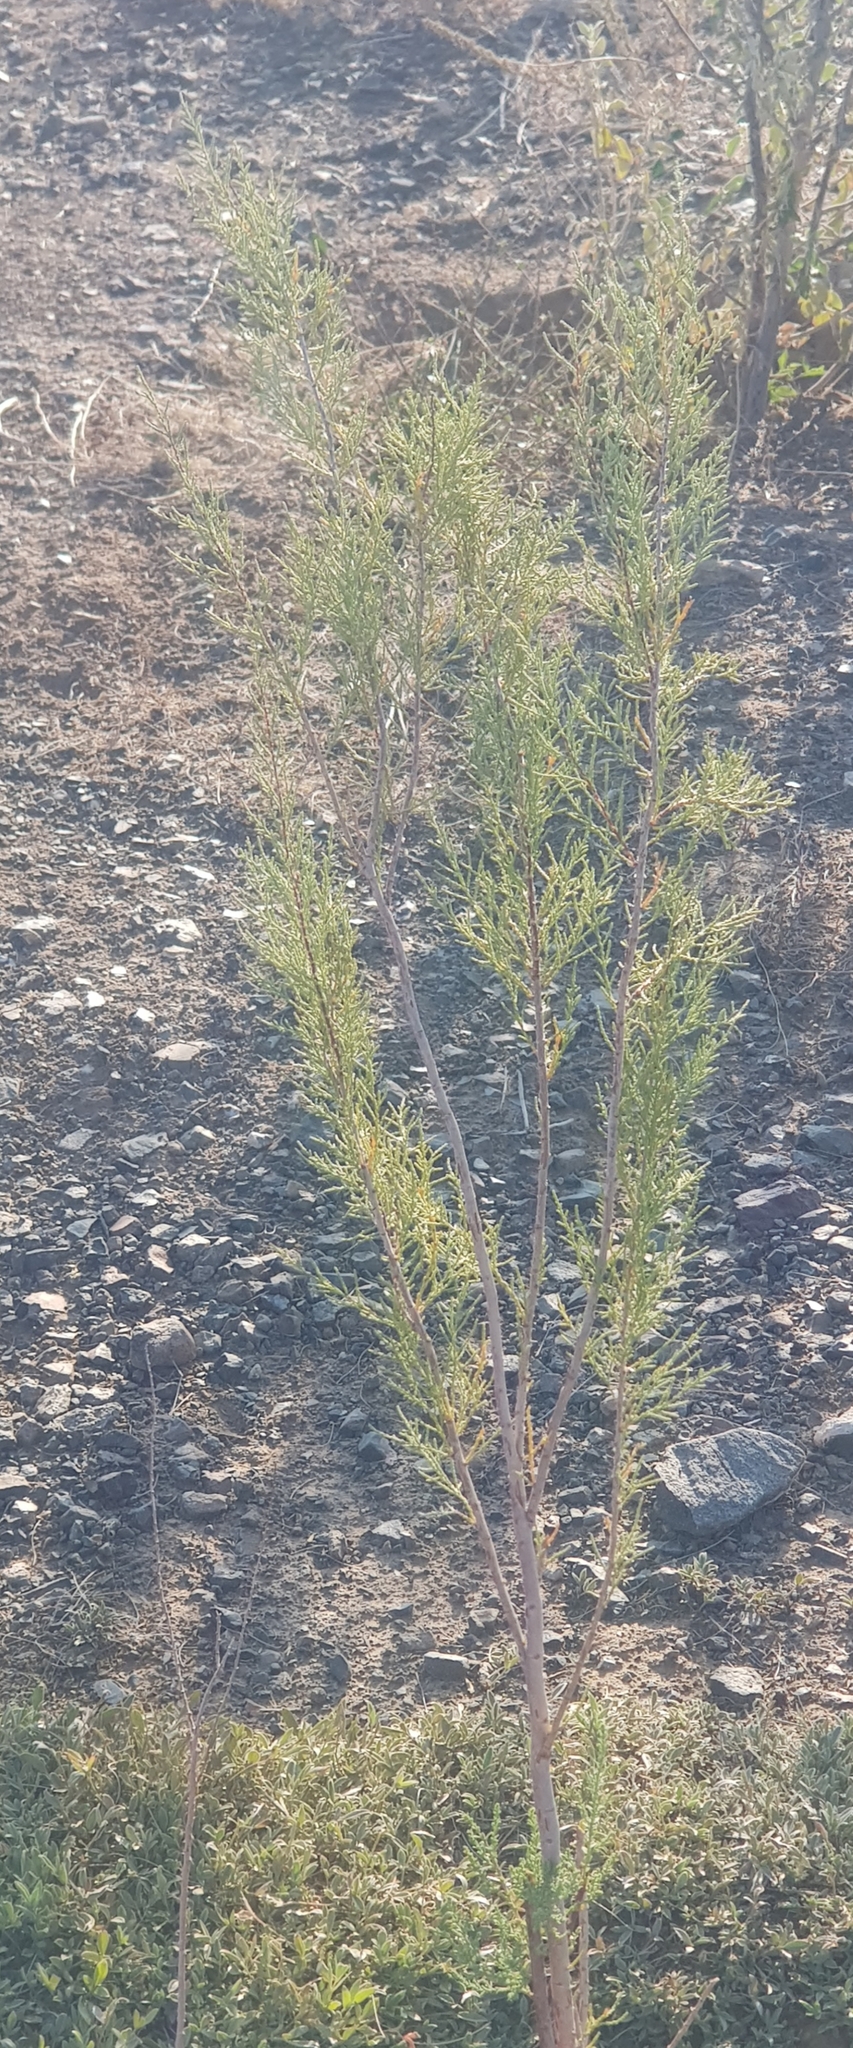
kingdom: Plantae
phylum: Tracheophyta
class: Magnoliopsida
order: Rosales
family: Elaeagnaceae
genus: Elaeagnus
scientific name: Elaeagnus angustifolia
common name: Russian olive
